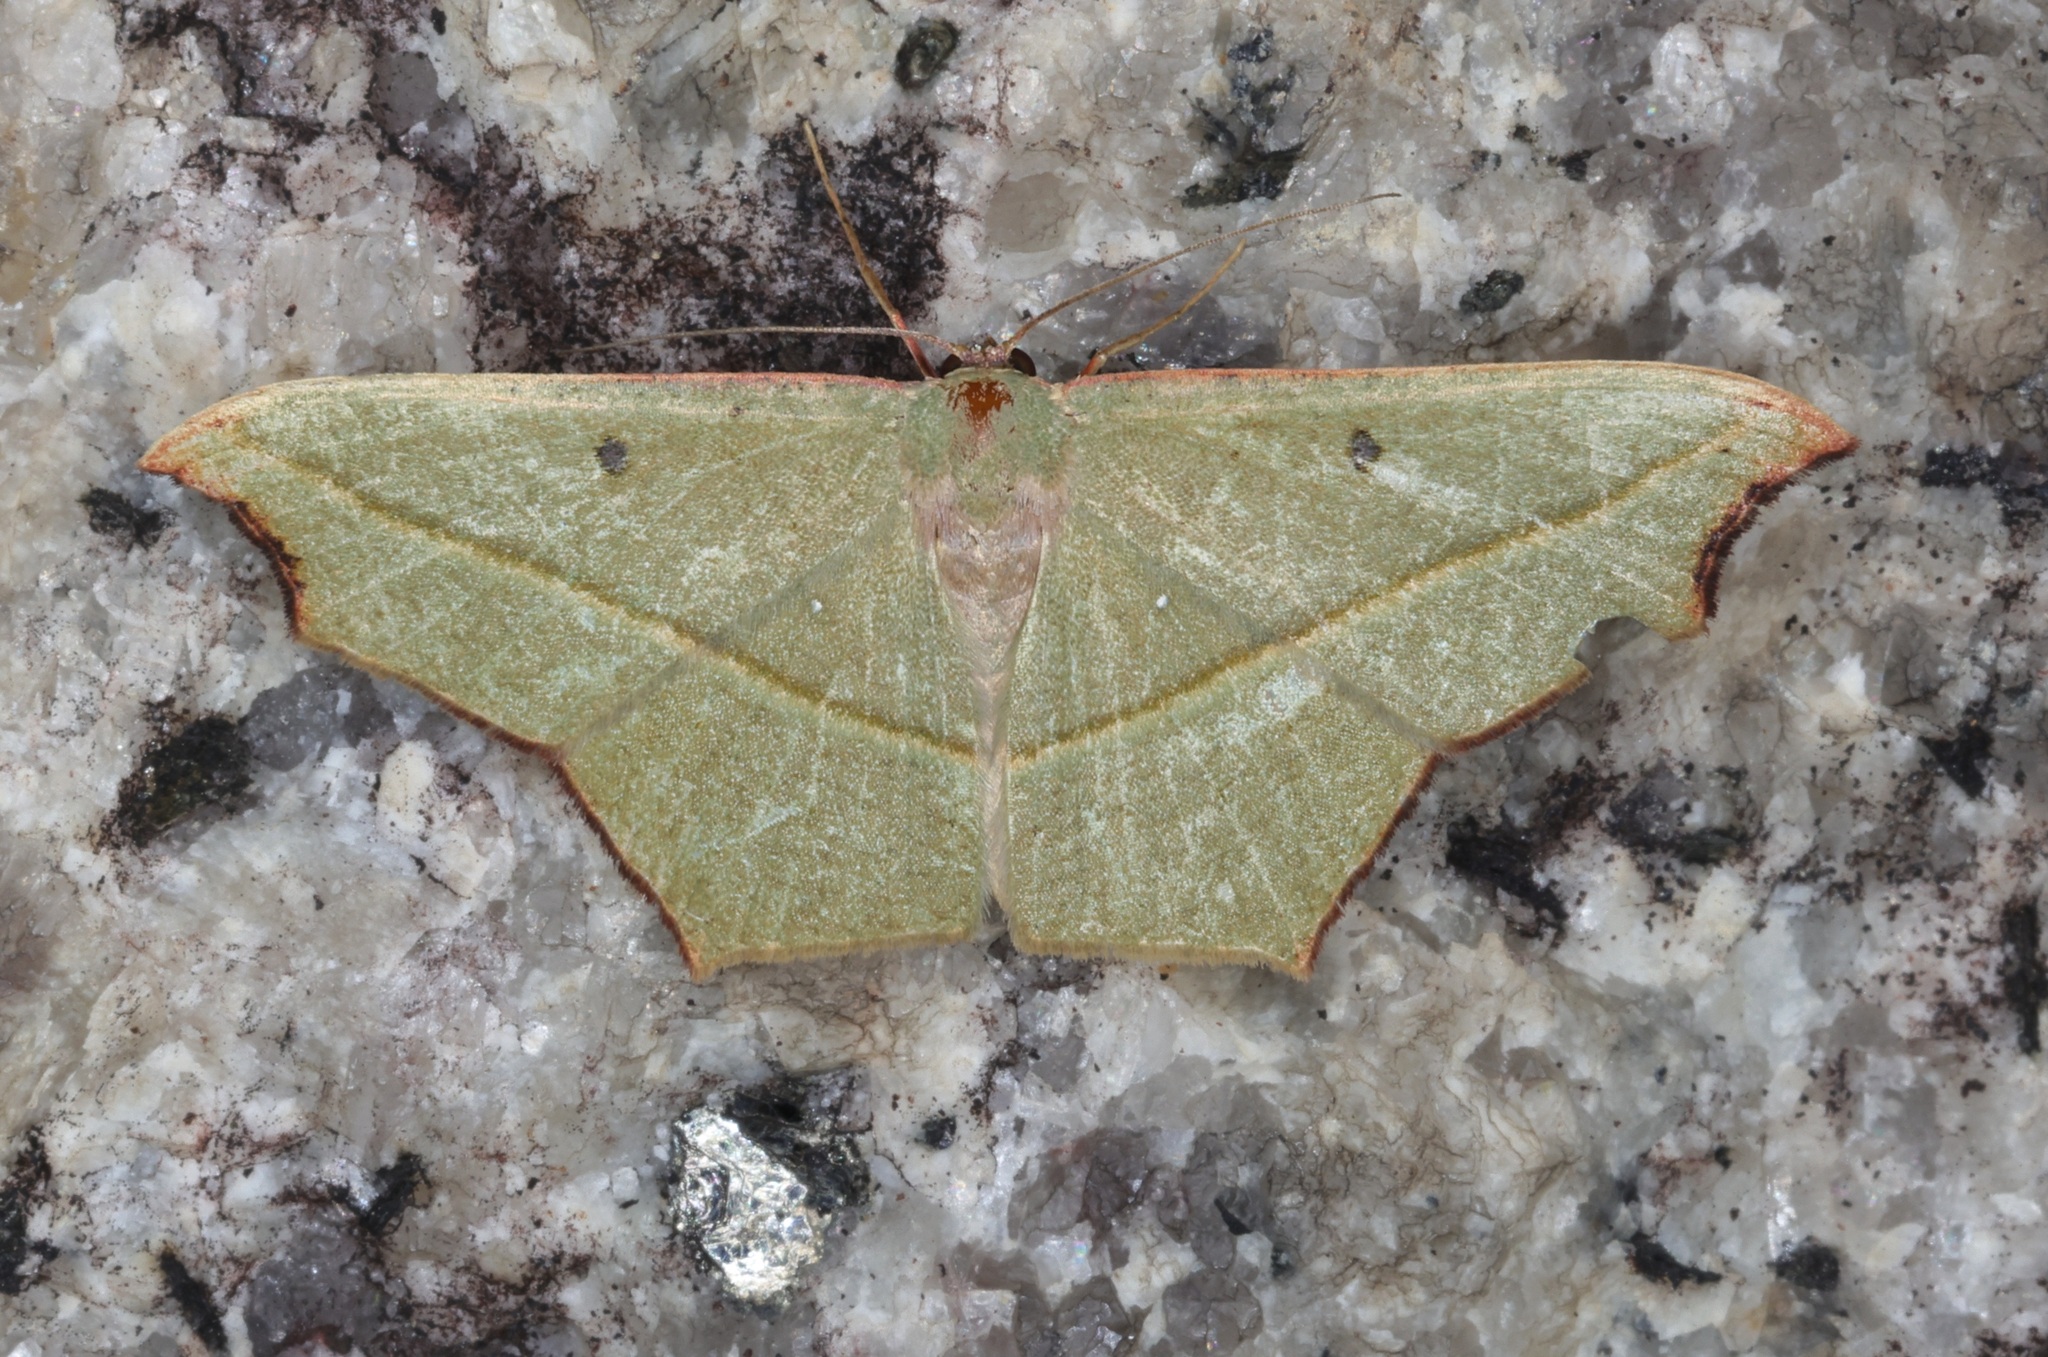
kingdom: Animalia
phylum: Arthropoda
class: Insecta
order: Lepidoptera
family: Geometridae
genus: Traminda
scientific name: Traminda aventiaria
